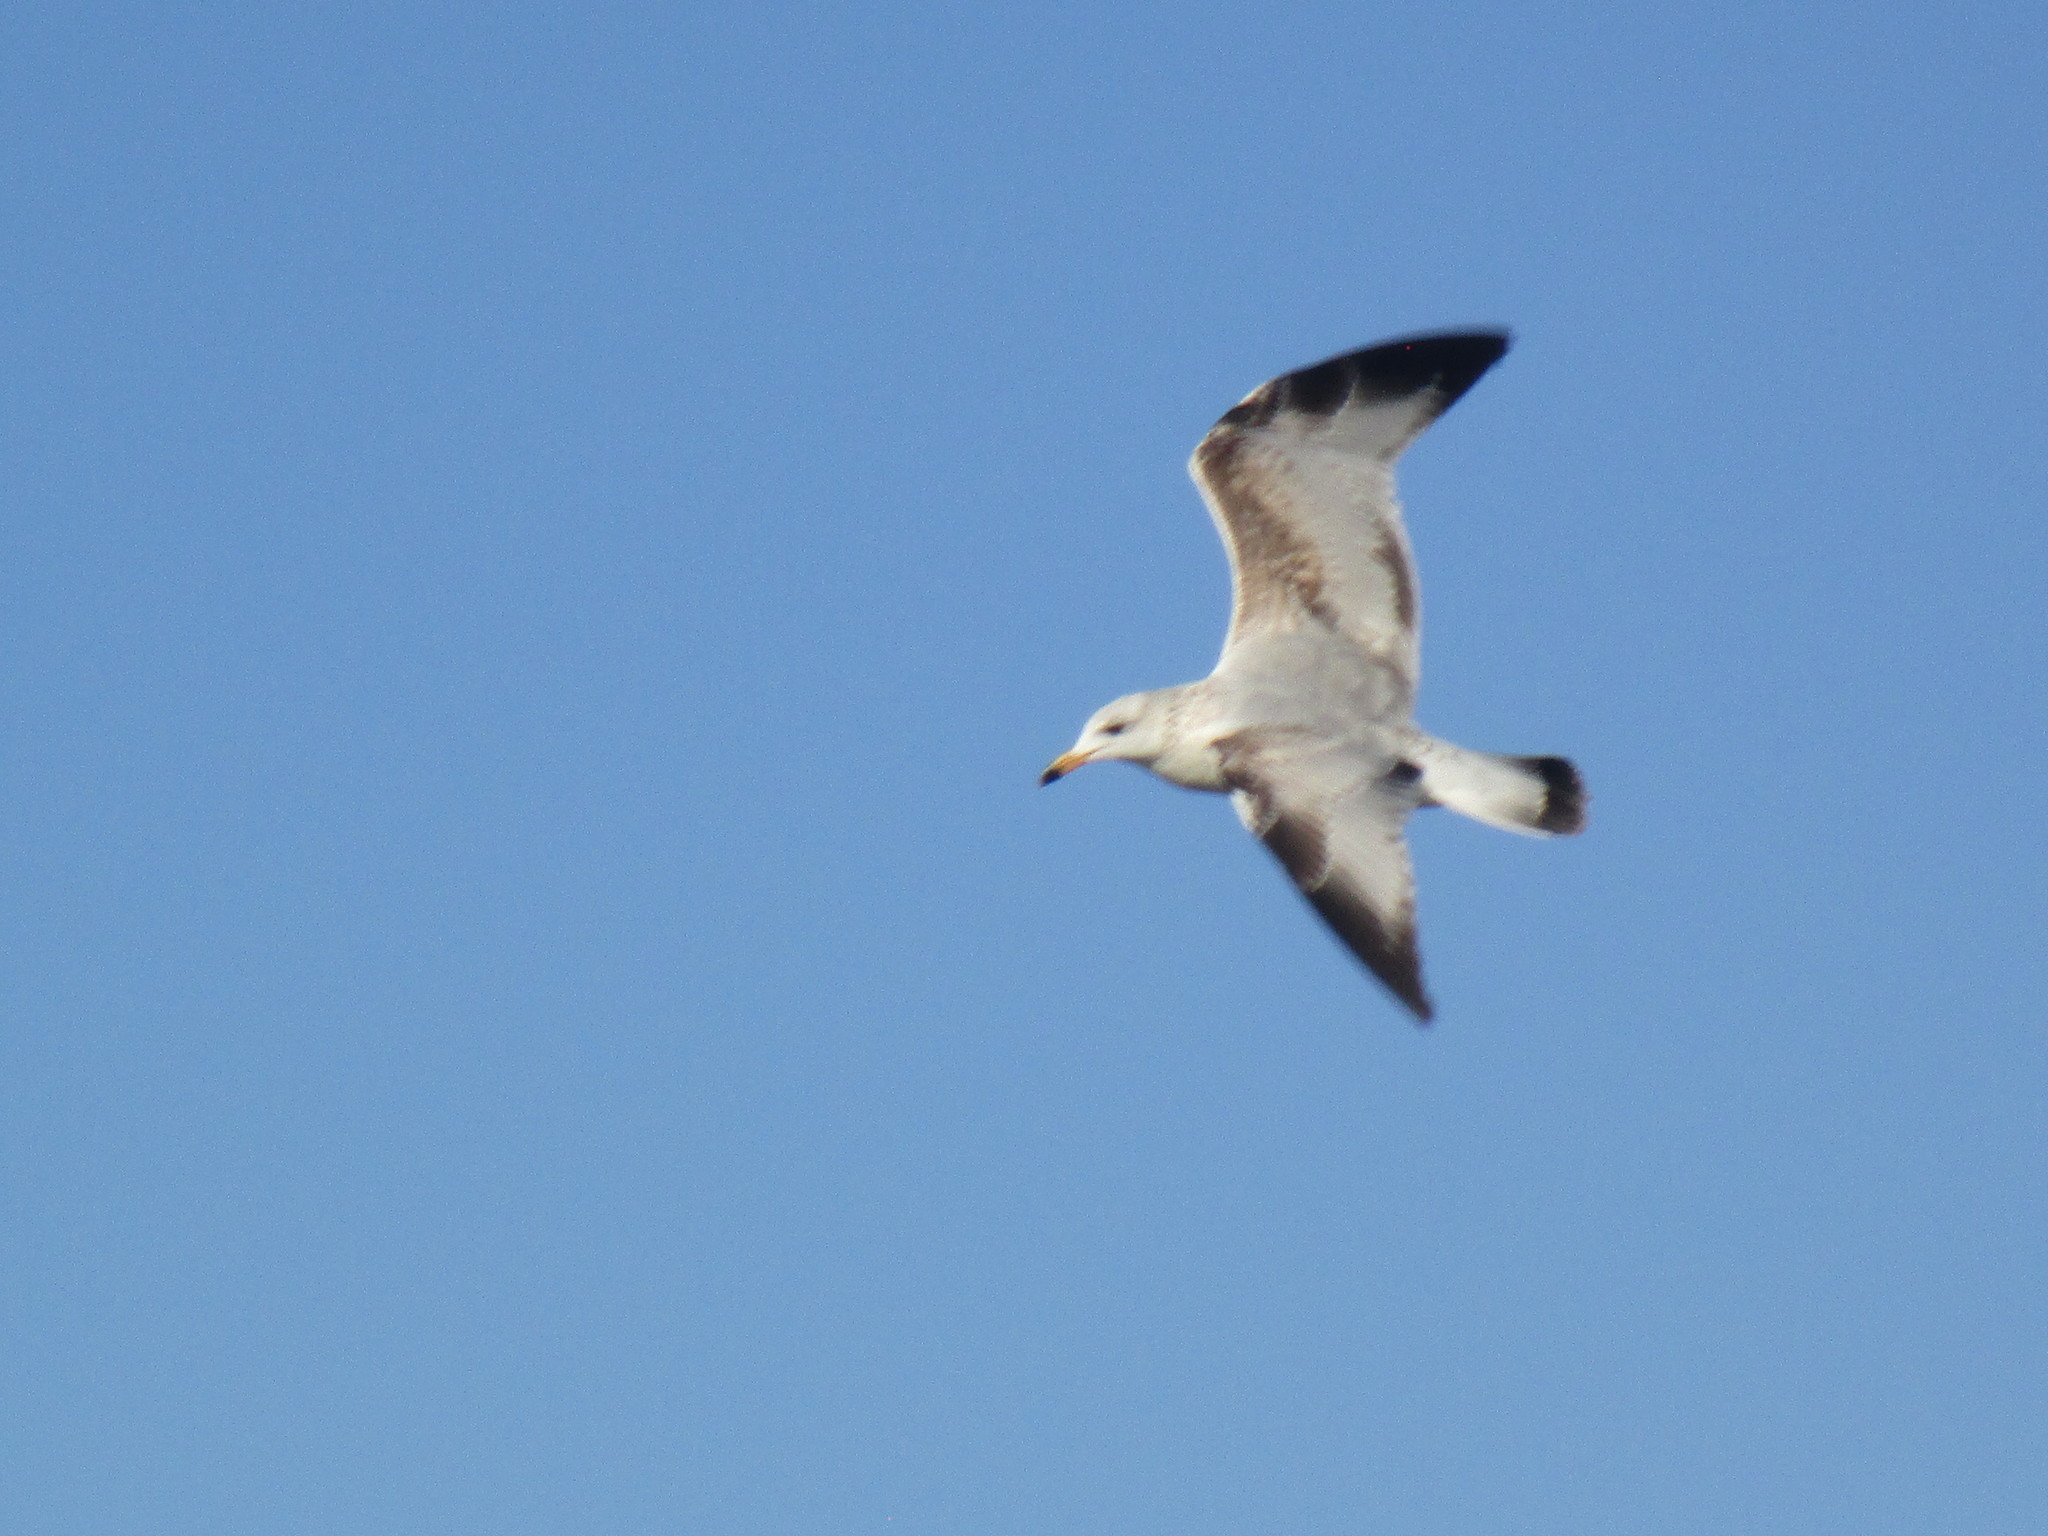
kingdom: Animalia
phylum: Chordata
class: Aves
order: Charadriiformes
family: Laridae
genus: Larus
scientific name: Larus delawarensis
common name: Ring-billed gull
